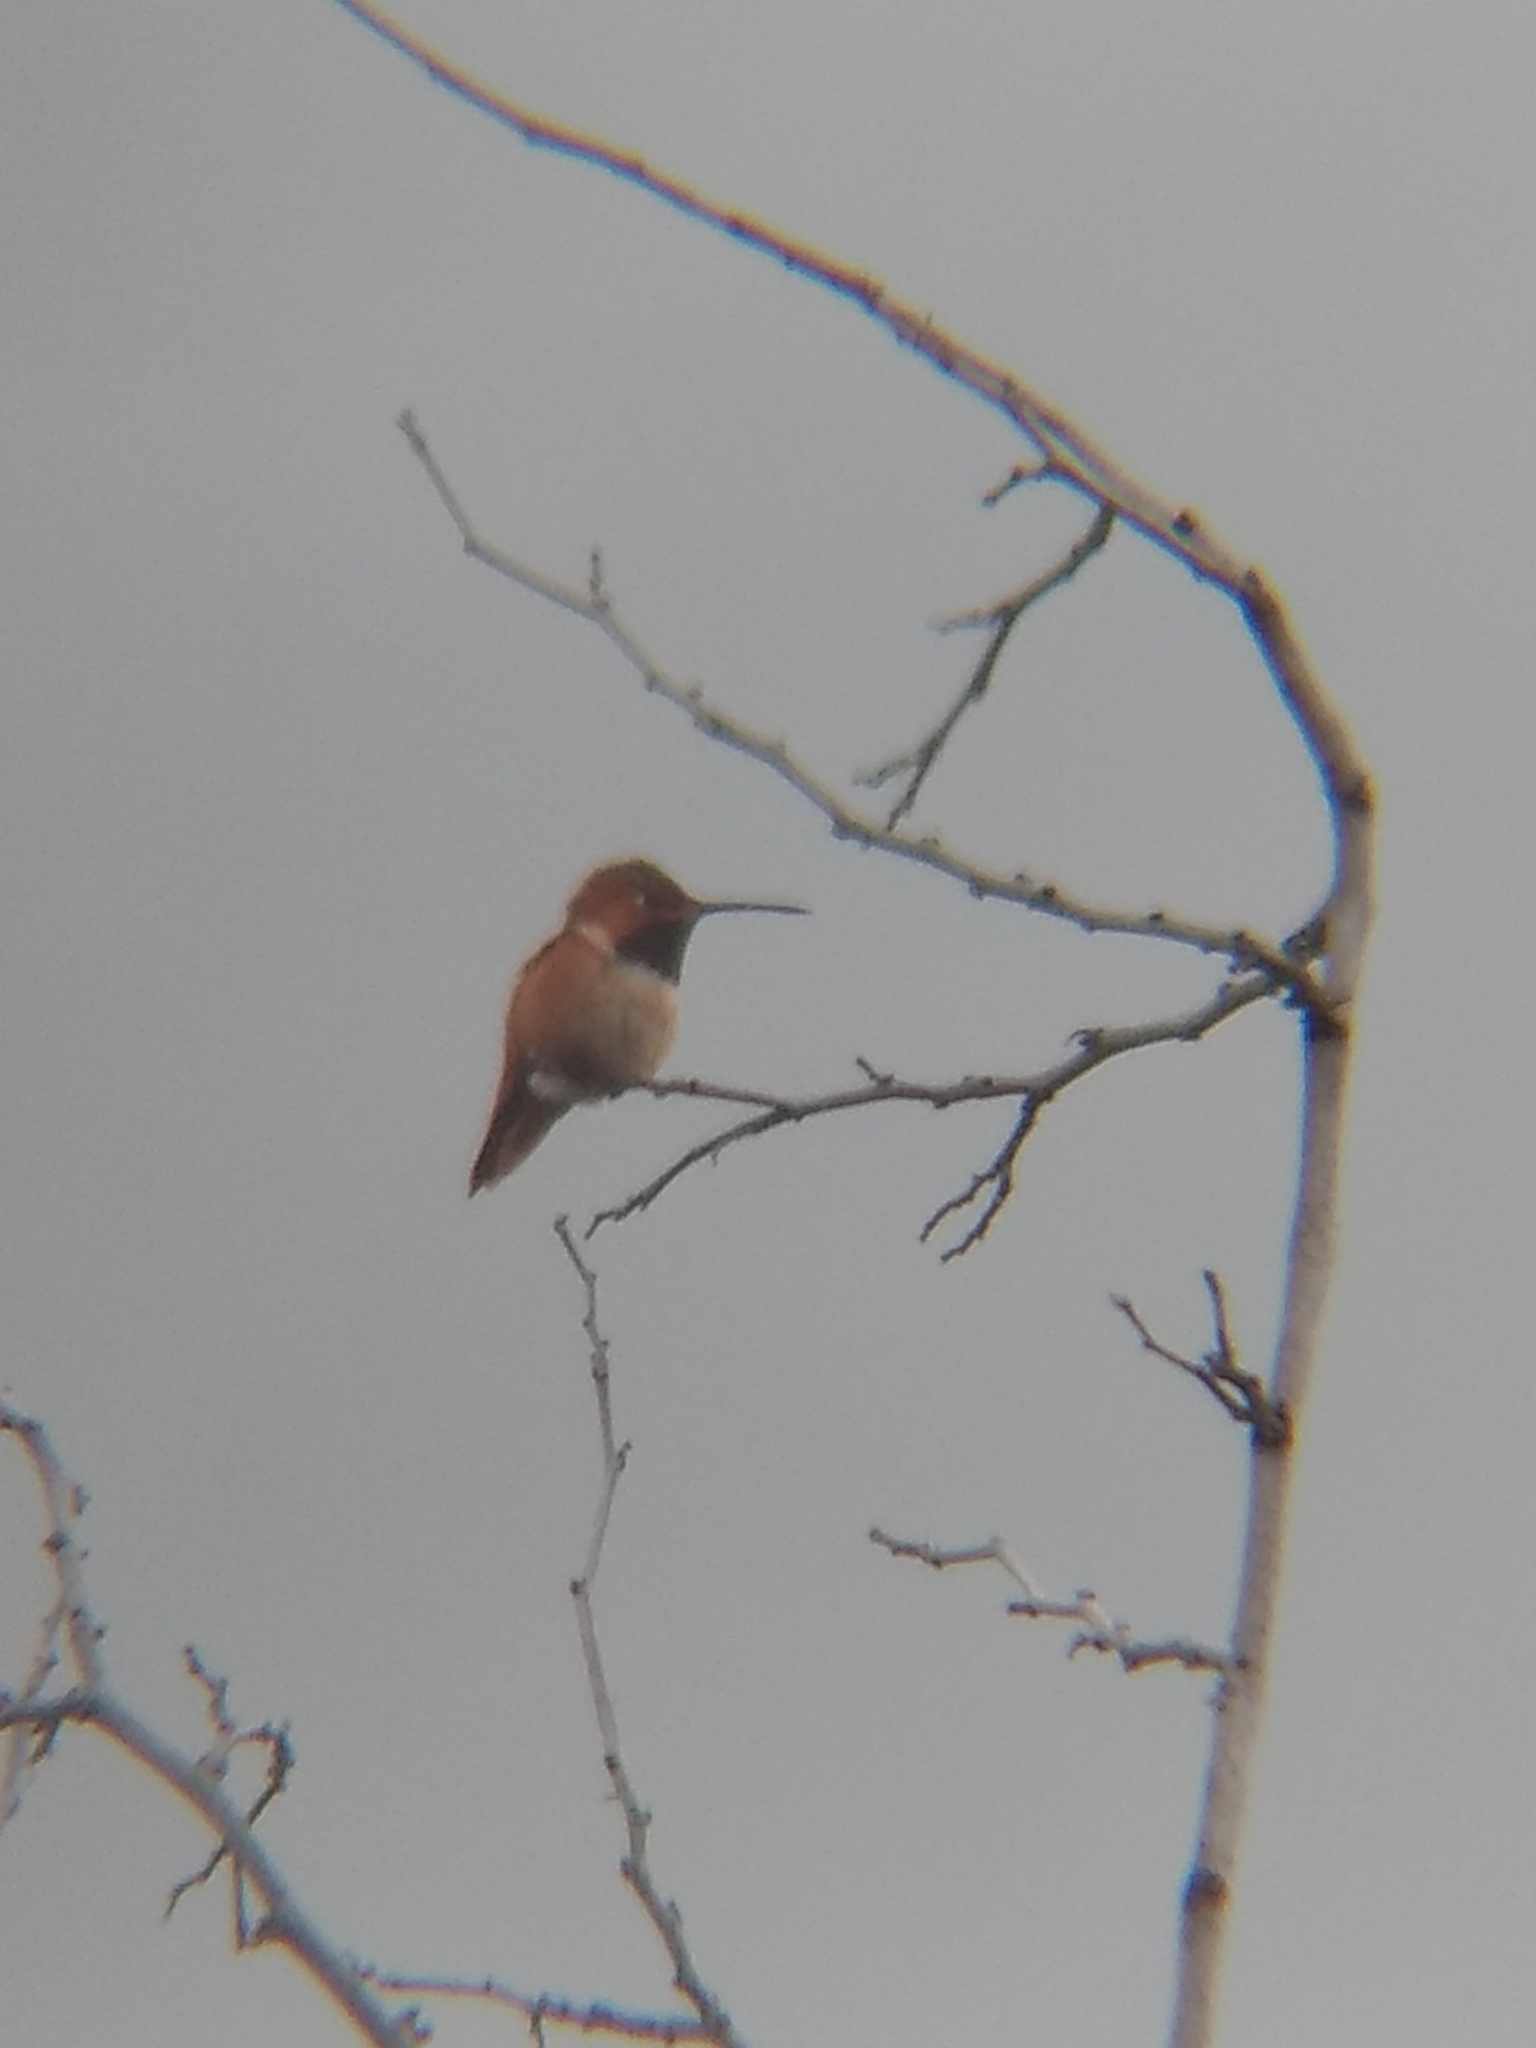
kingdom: Animalia
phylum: Chordata
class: Aves
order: Apodiformes
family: Trochilidae
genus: Selasphorus
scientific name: Selasphorus
